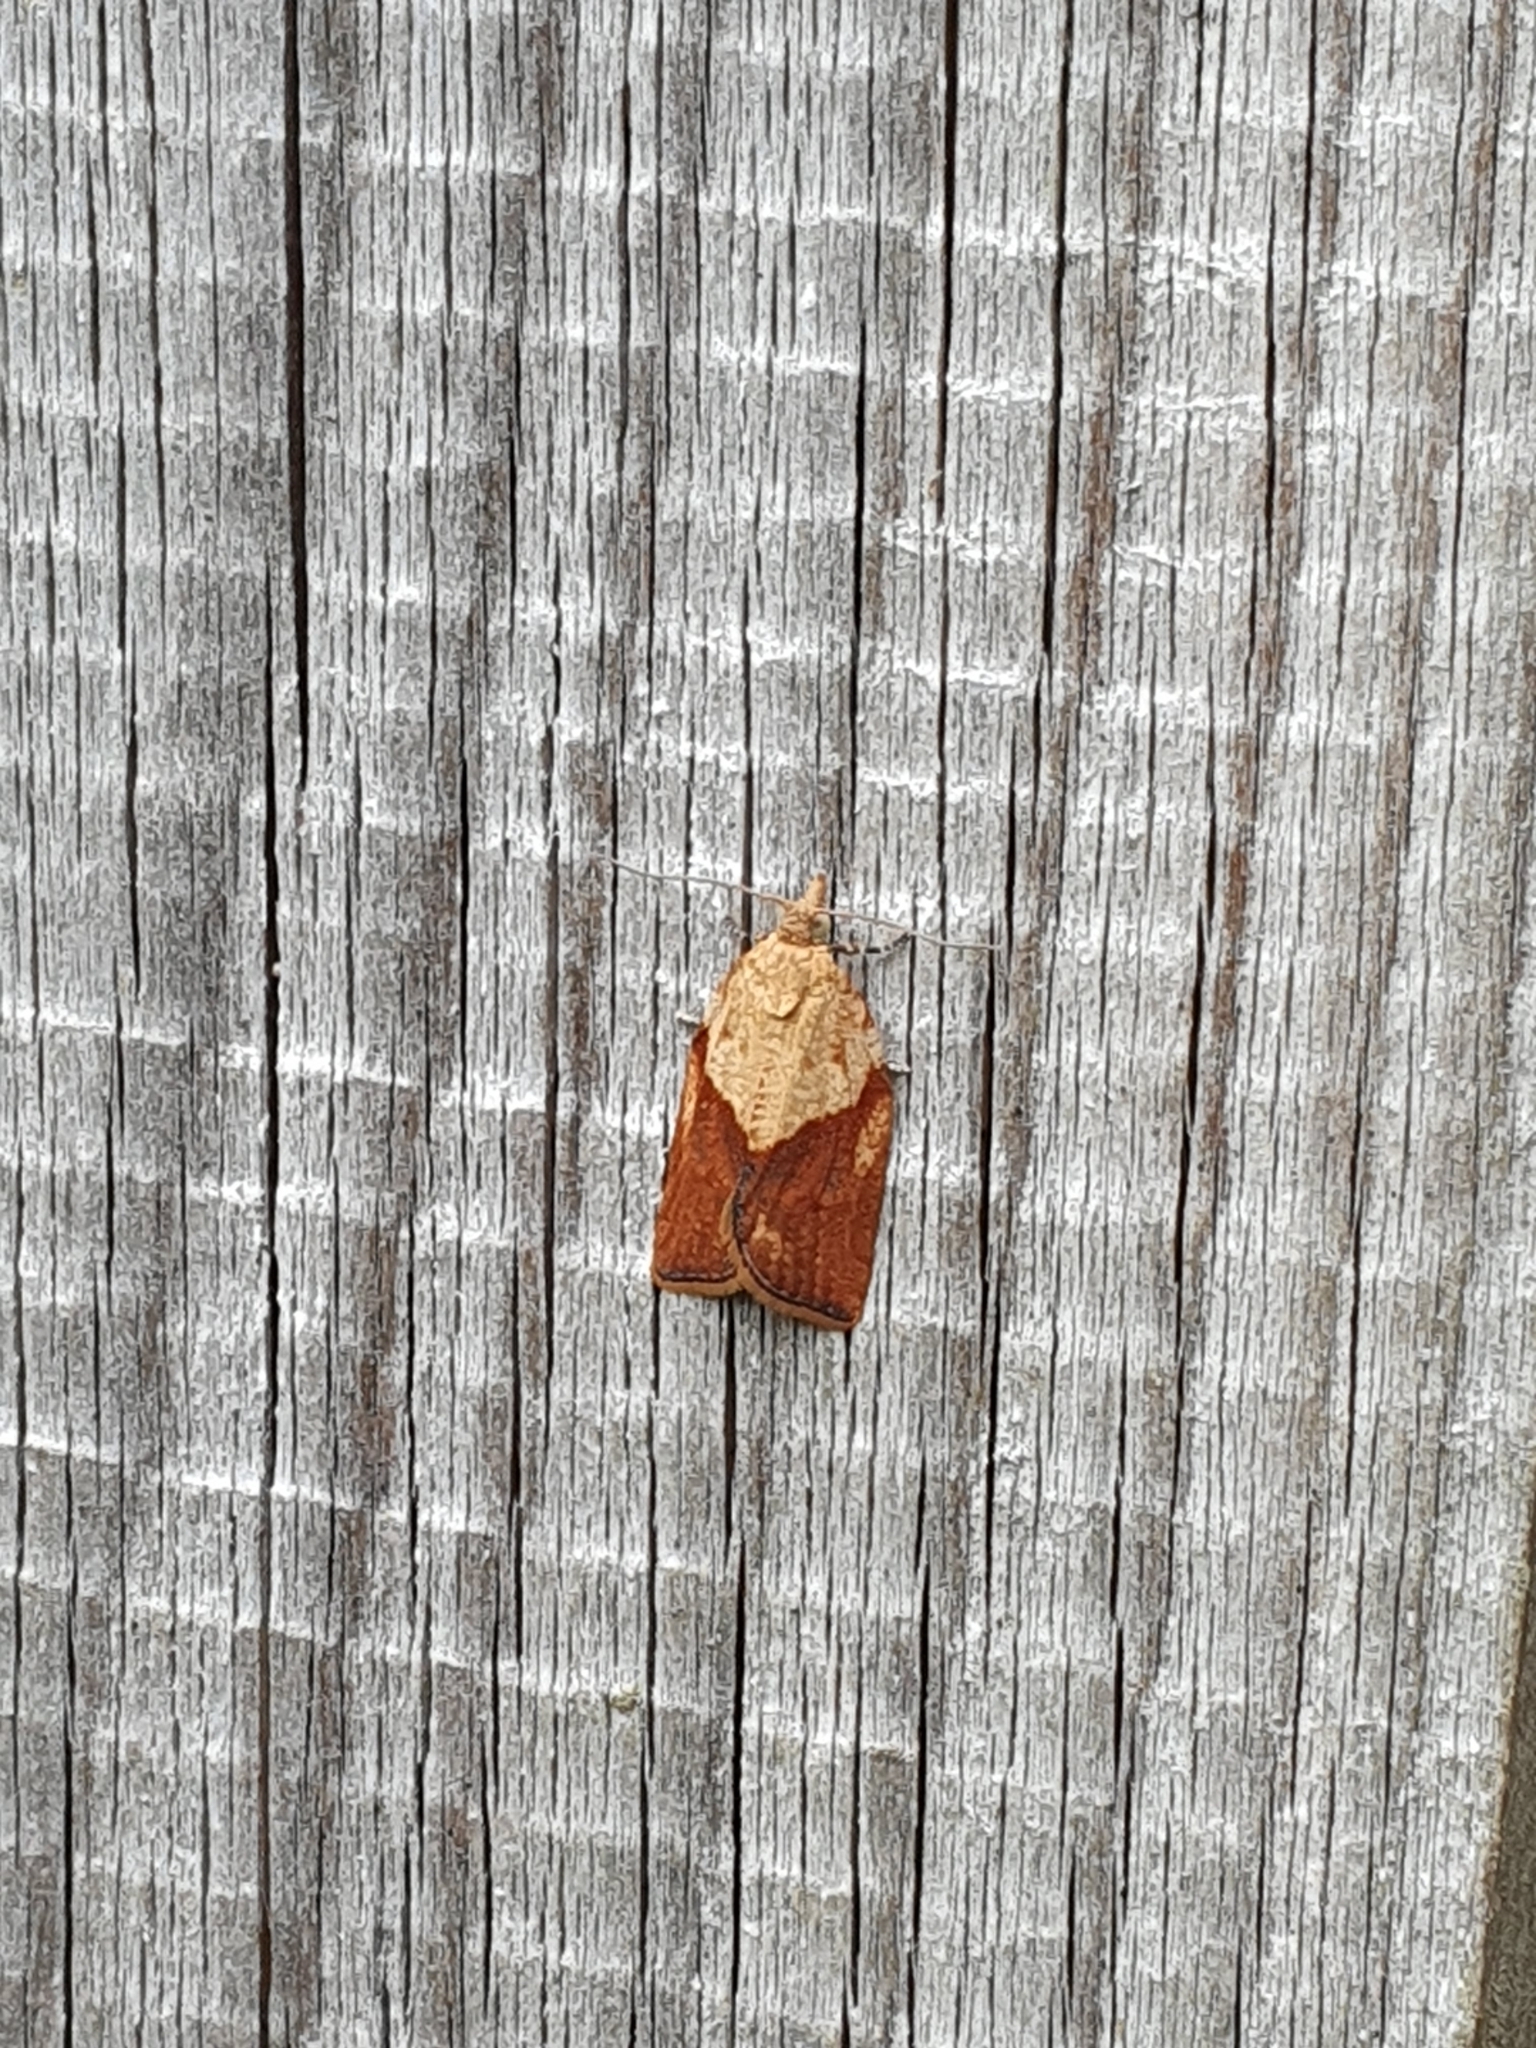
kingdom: Animalia
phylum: Arthropoda
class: Insecta
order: Lepidoptera
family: Tortricidae
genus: Epiphyas
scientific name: Epiphyas postvittana
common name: Light brown apple moth
